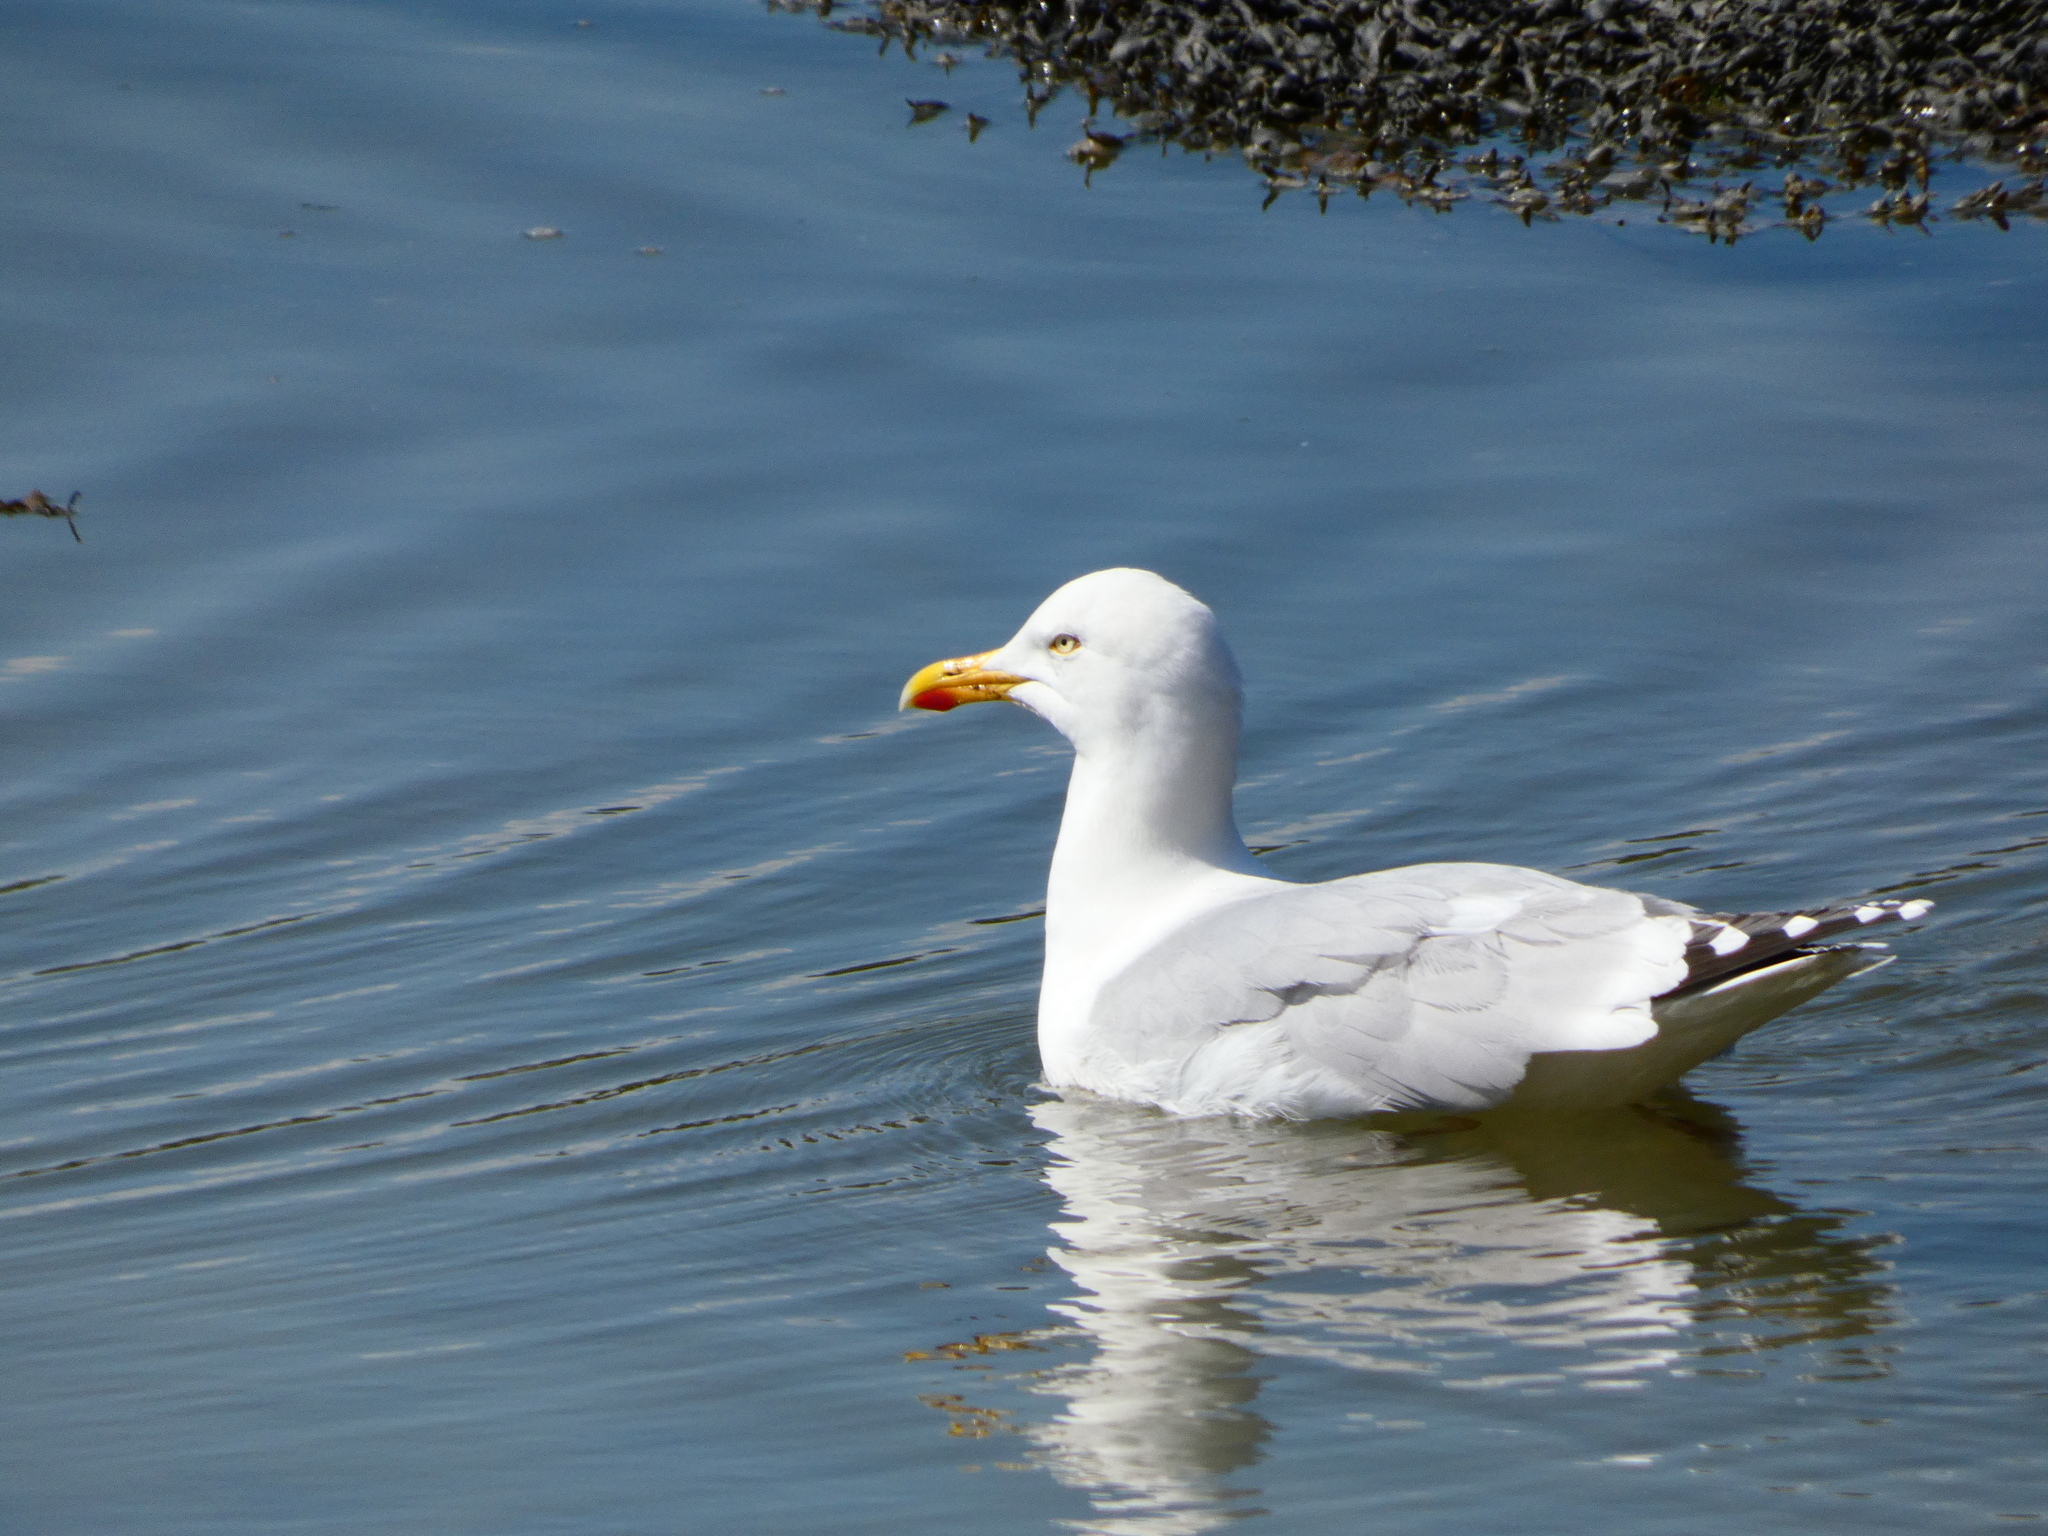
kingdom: Animalia
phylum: Chordata
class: Aves
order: Charadriiformes
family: Laridae
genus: Larus
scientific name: Larus argentatus
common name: Herring gull
